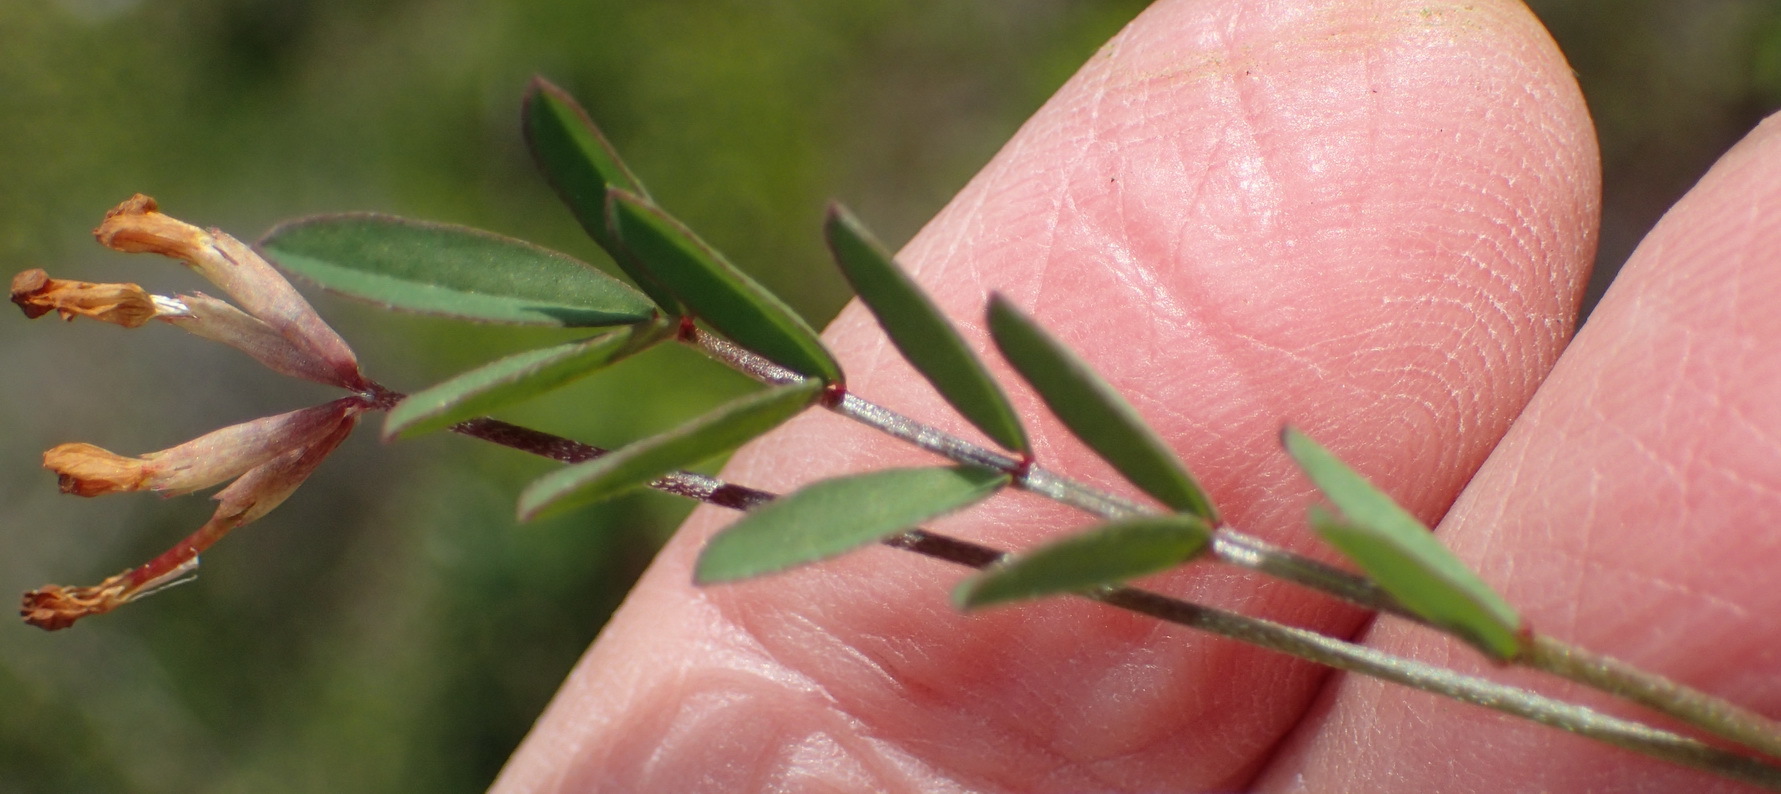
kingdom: Plantae
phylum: Tracheophyta
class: Magnoliopsida
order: Fabales
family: Fabaceae
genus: Ornithopus
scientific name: Ornithopus pinnatus
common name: Orange bird's-foot
